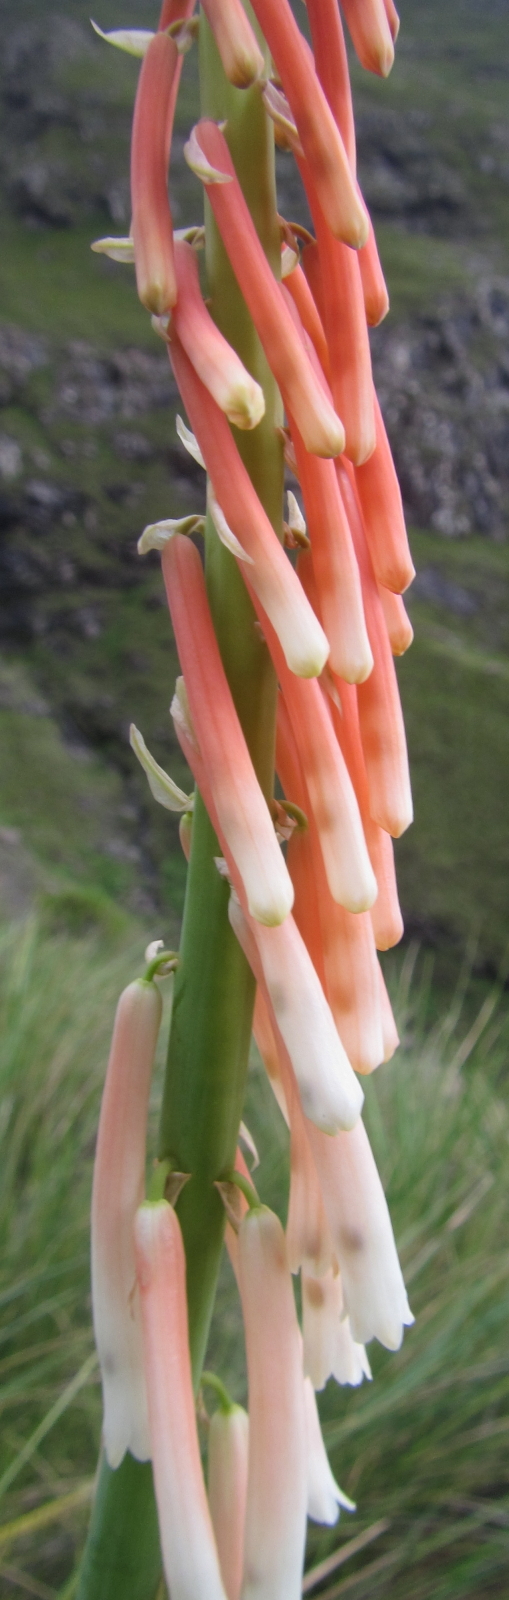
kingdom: Plantae
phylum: Tracheophyta
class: Liliopsida
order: Asparagales
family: Asphodelaceae
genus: Kniphofia
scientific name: Kniphofia angustifolia
